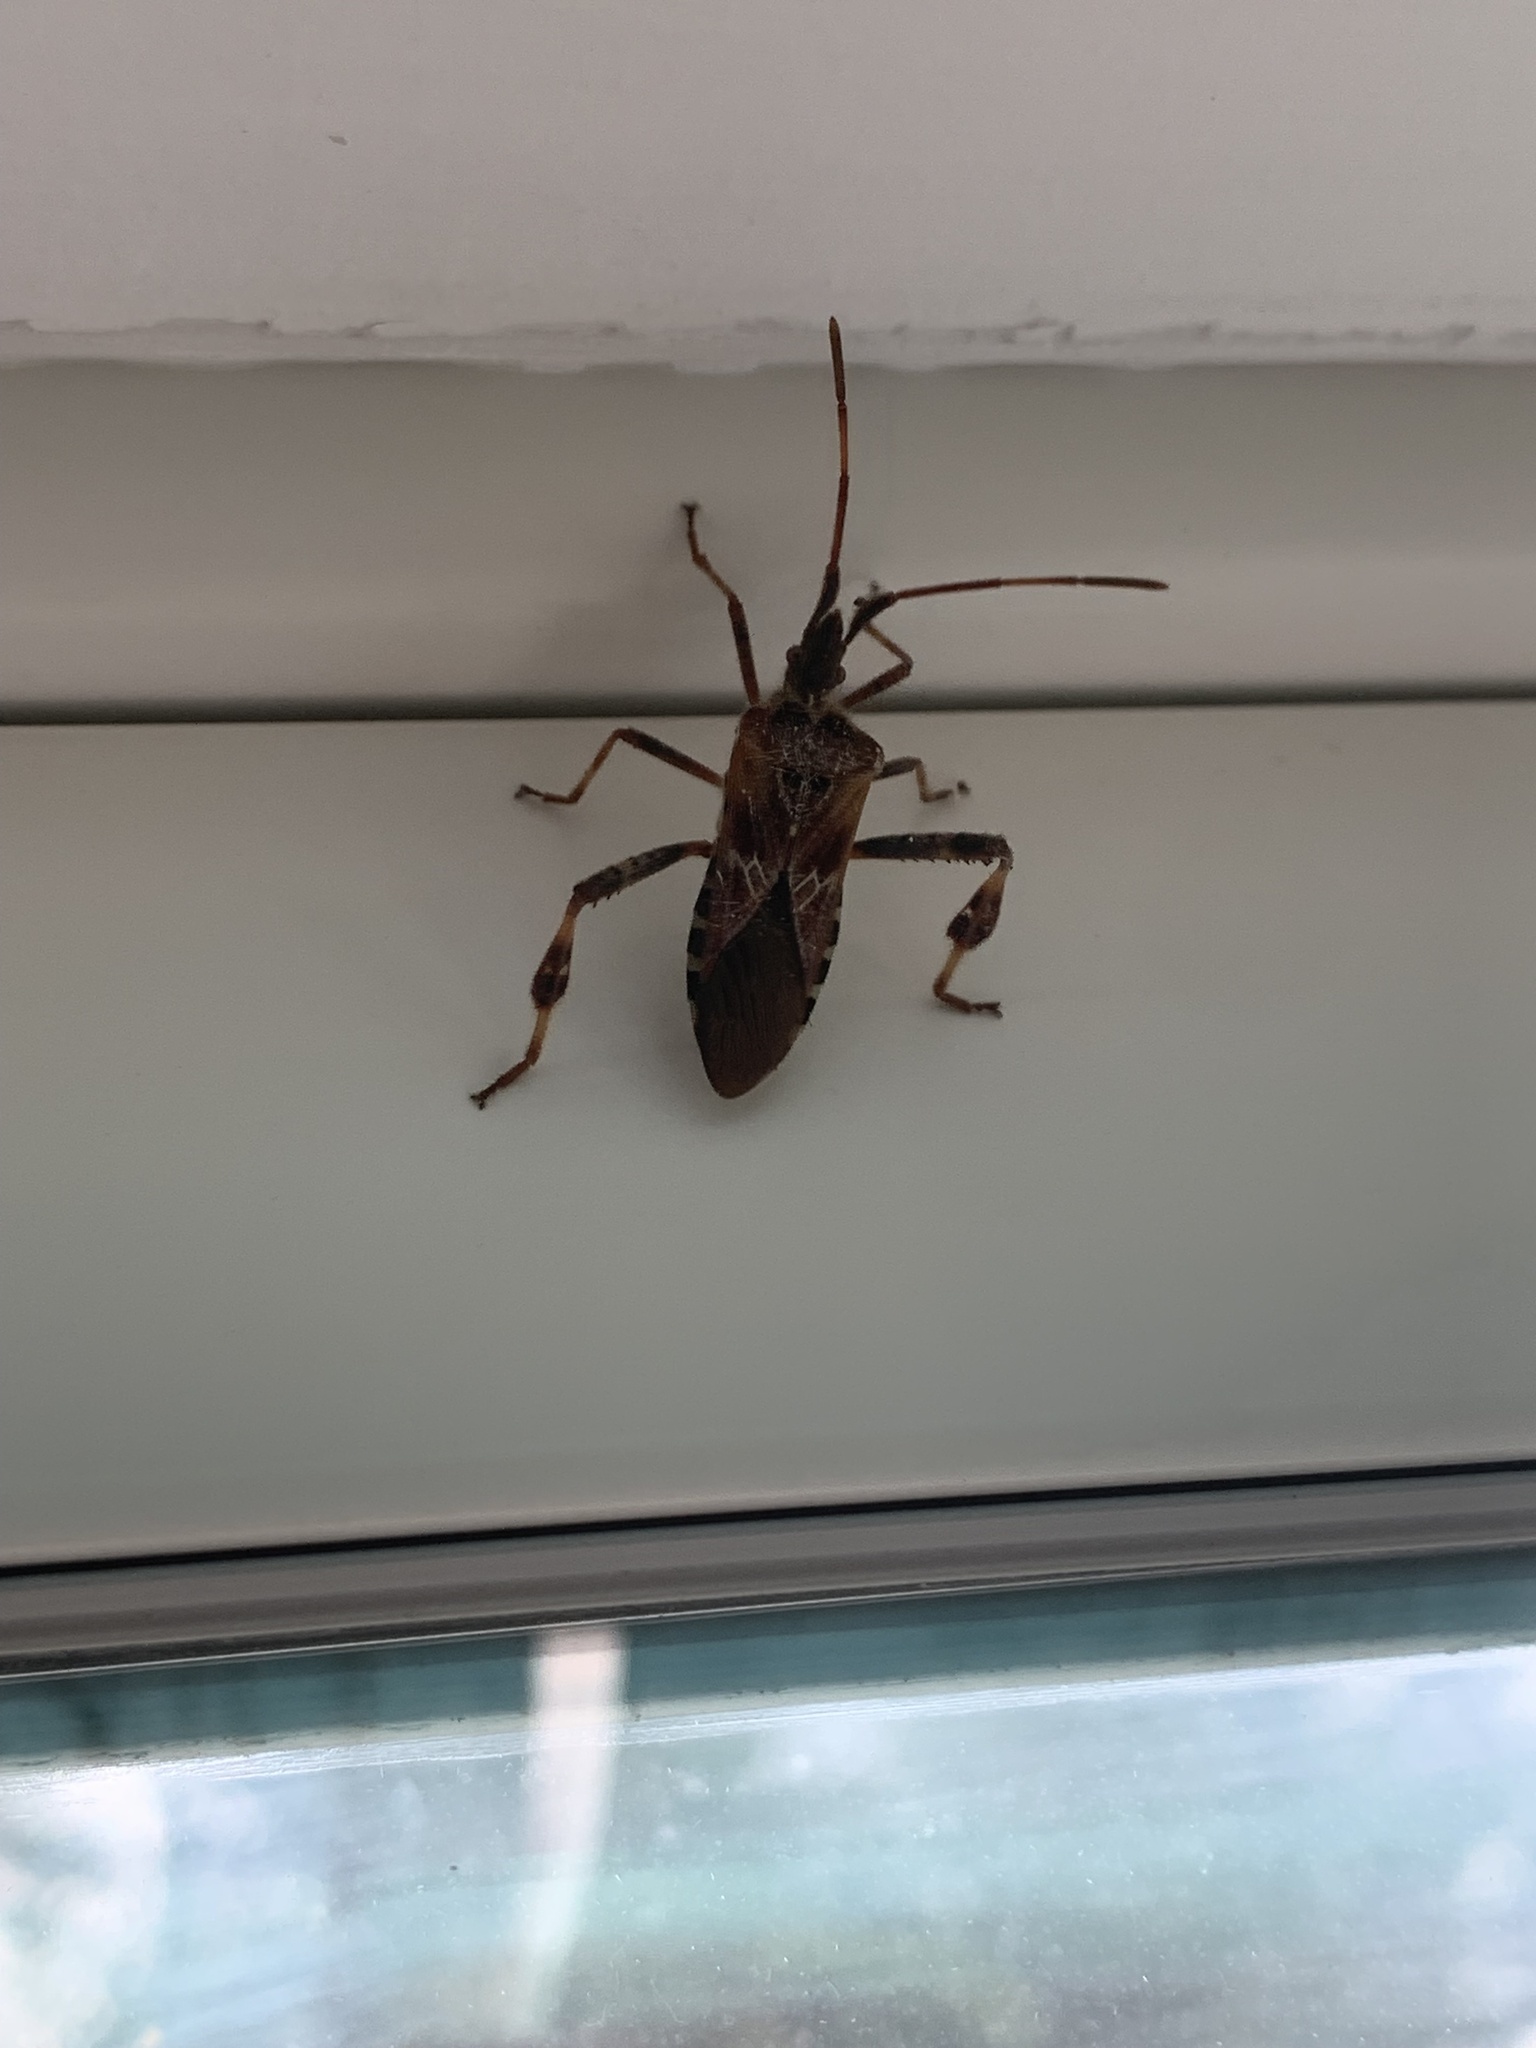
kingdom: Animalia
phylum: Arthropoda
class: Insecta
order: Hemiptera
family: Coreidae
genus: Leptoglossus
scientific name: Leptoglossus occidentalis
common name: Western conifer-seed bug
